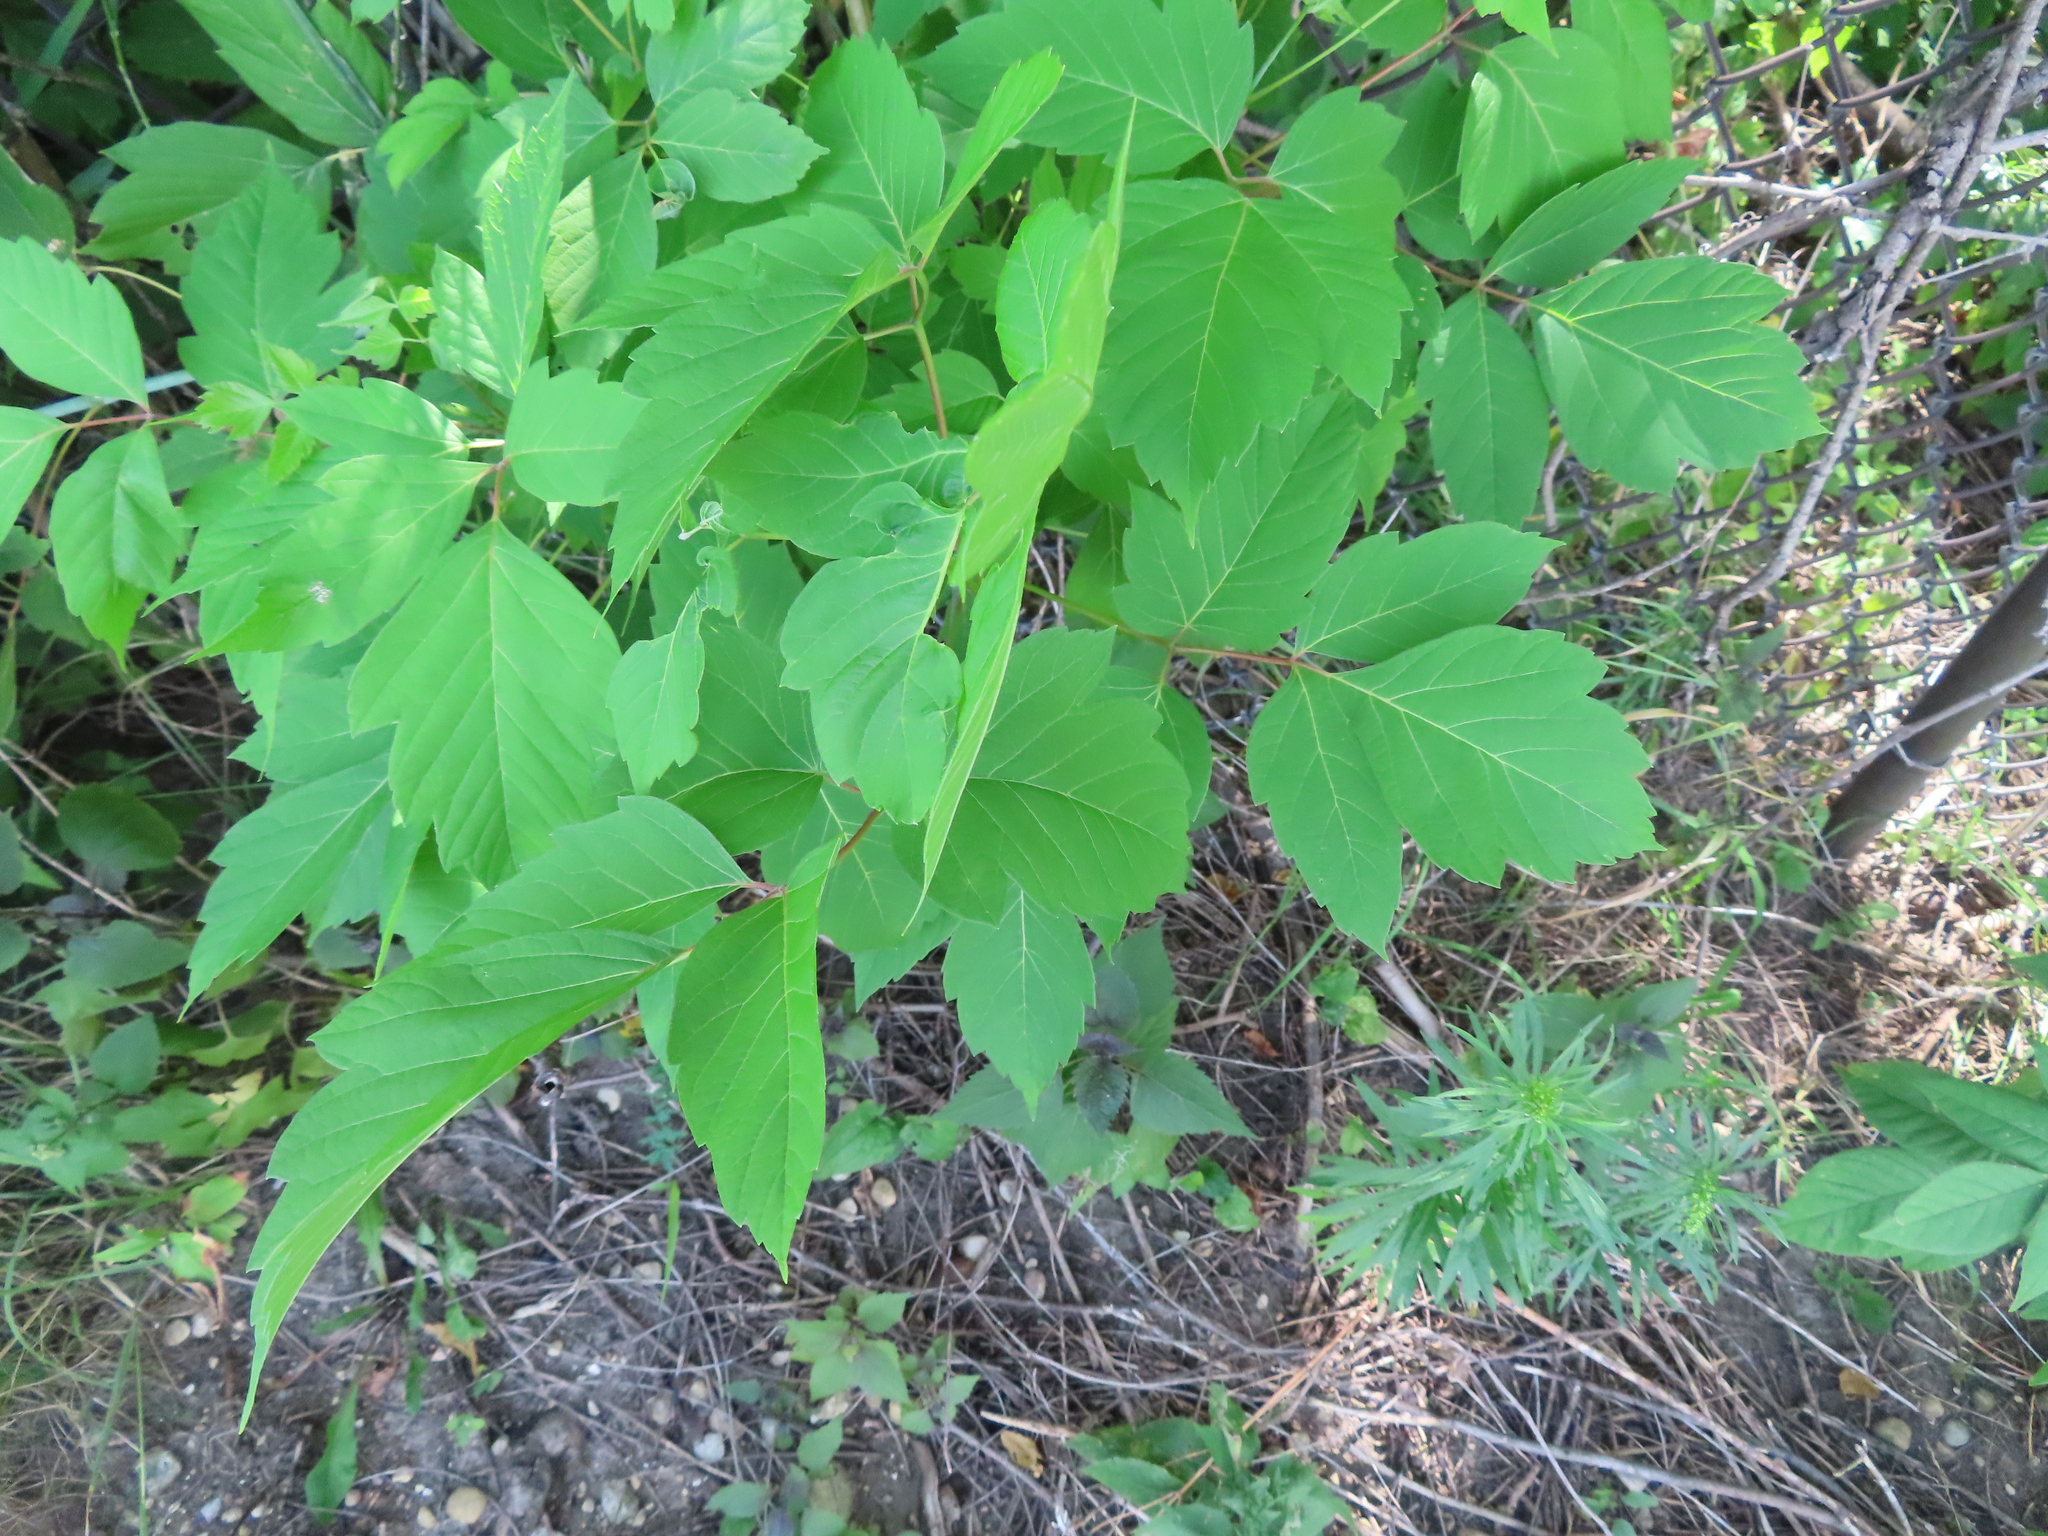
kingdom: Plantae
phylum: Tracheophyta
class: Magnoliopsida
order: Sapindales
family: Sapindaceae
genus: Acer
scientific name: Acer negundo
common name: Ashleaf maple
